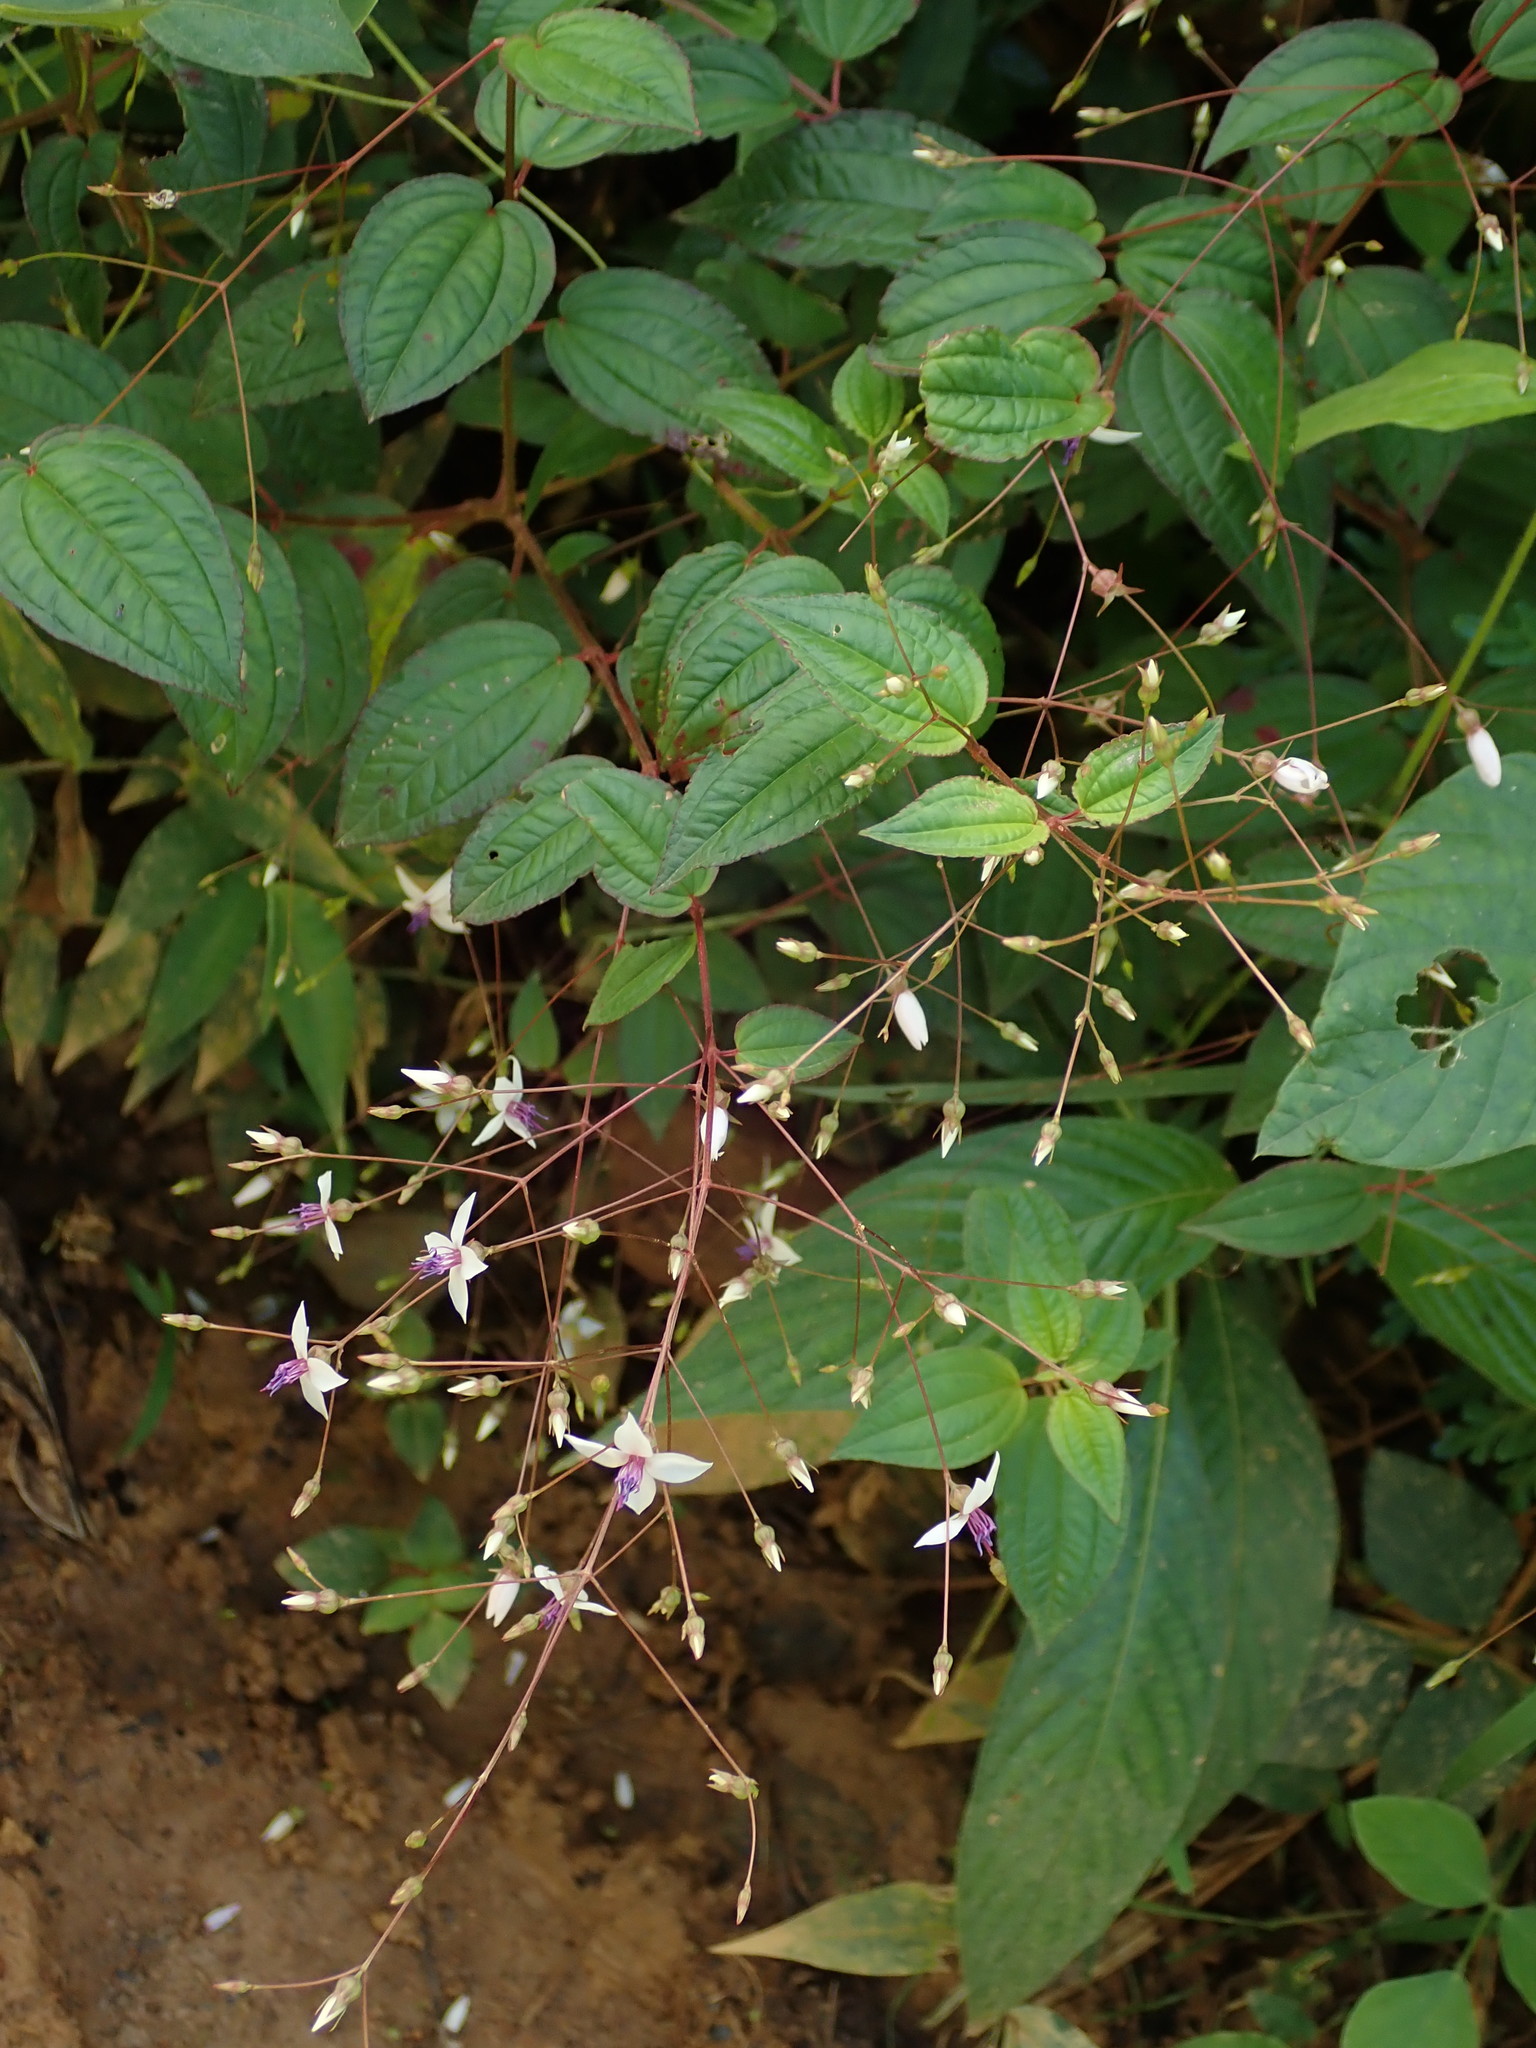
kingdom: Plantae
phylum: Tracheophyta
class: Magnoliopsida
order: Myrtales
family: Melastomataceae
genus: Nepsera
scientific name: Nepsera aquatica
